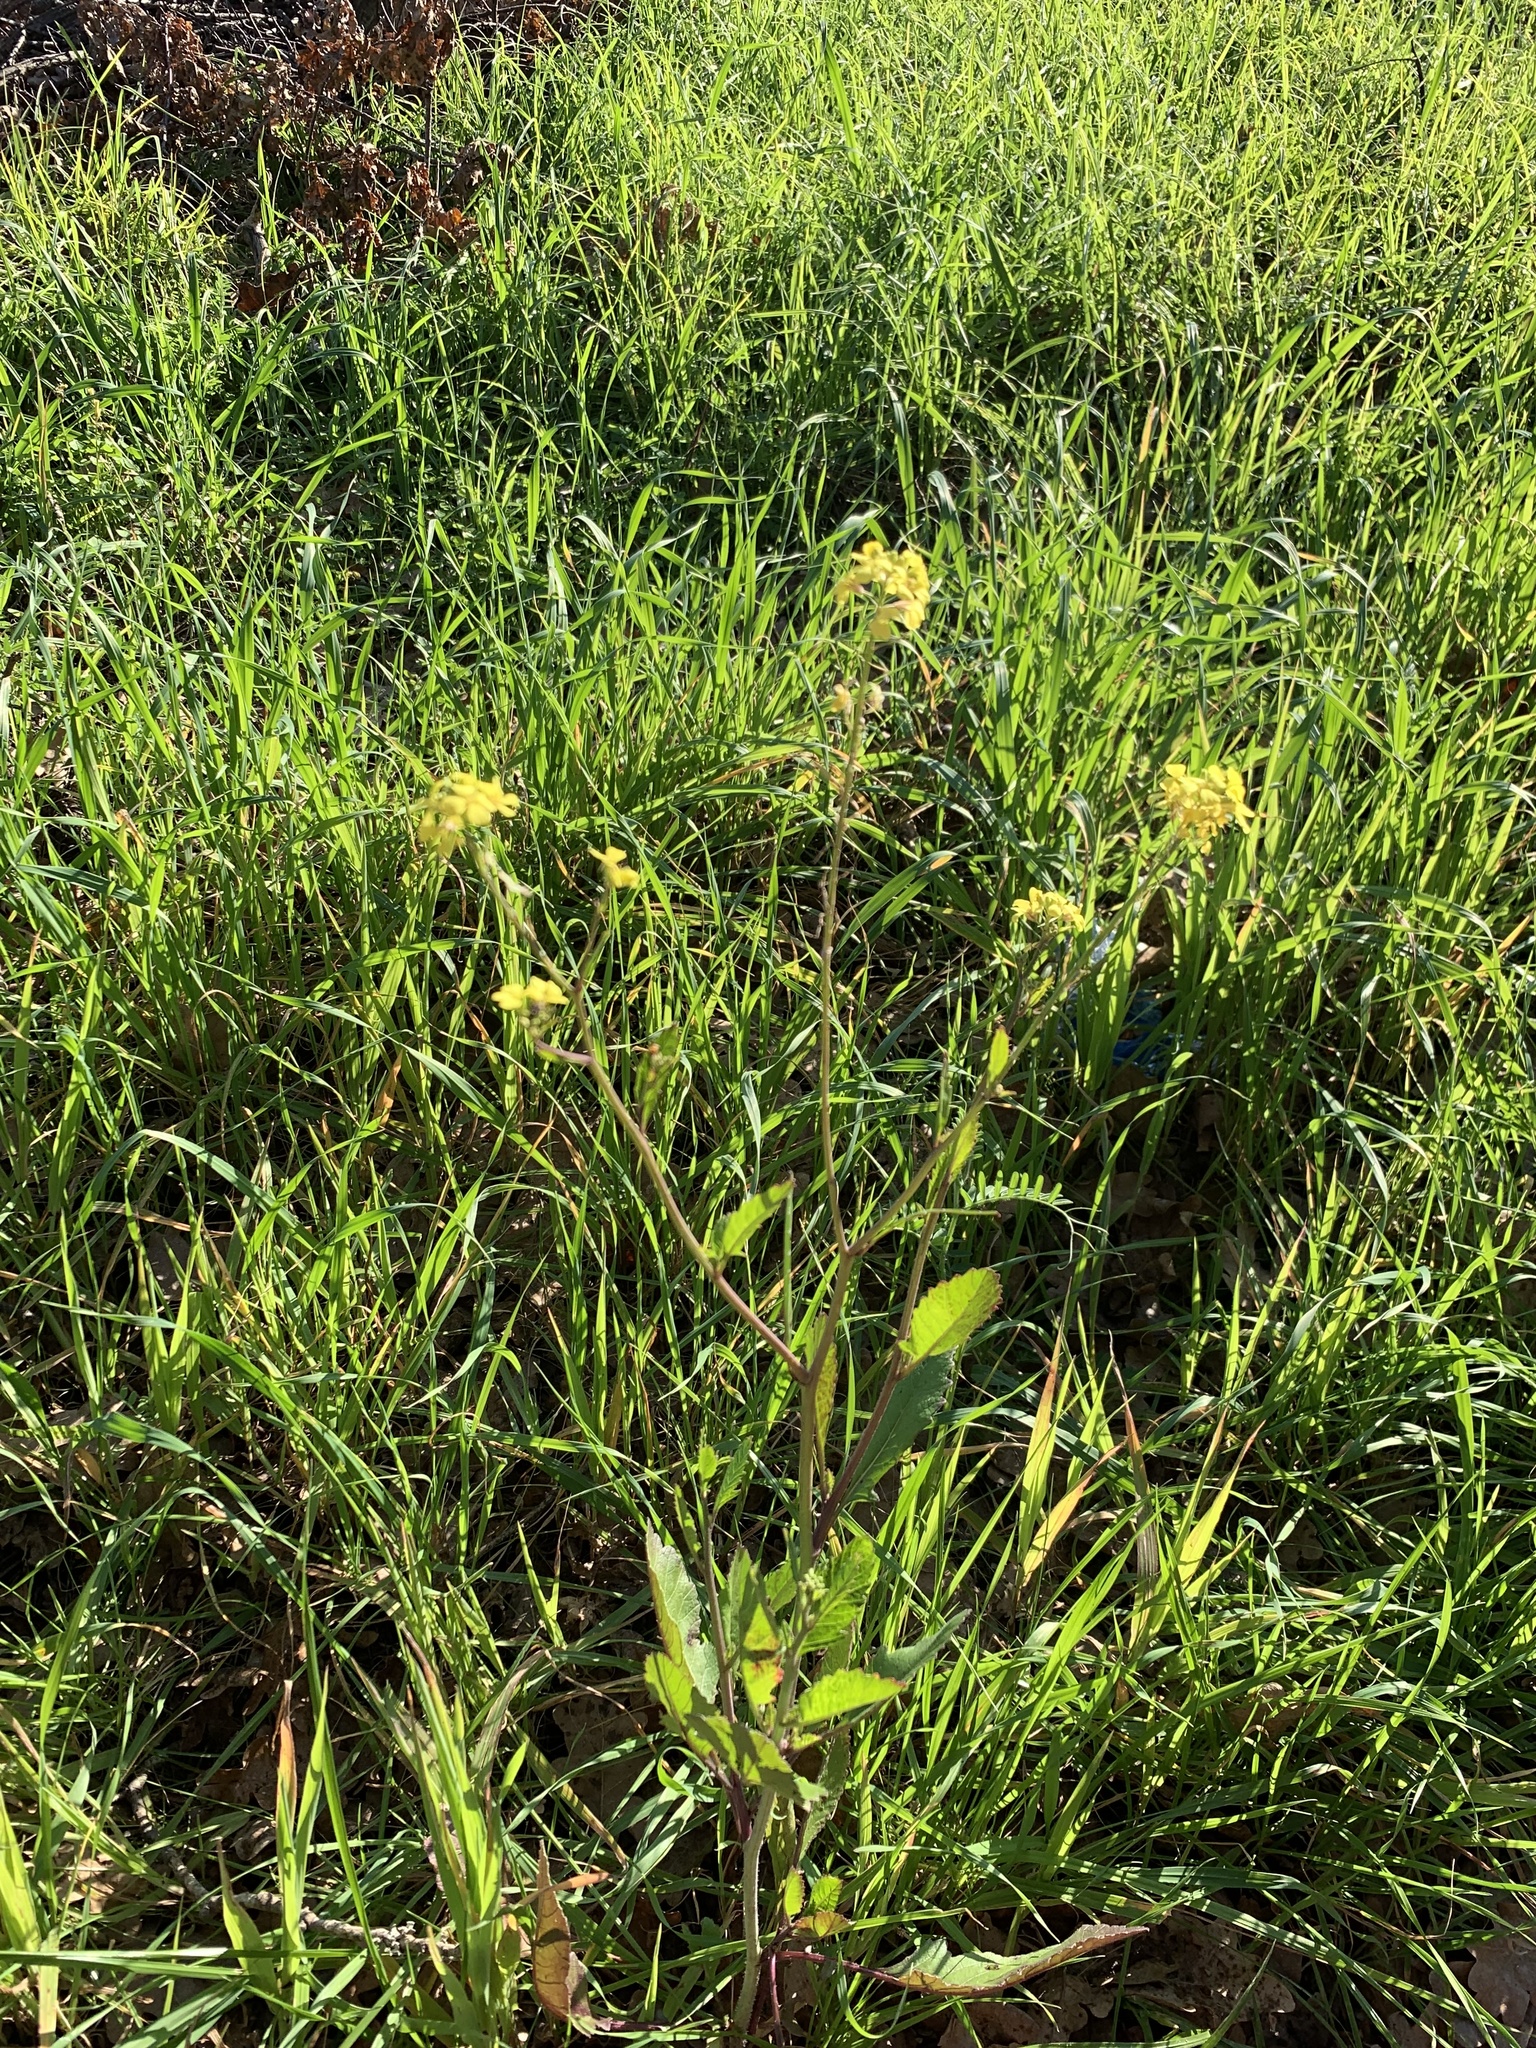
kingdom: Plantae
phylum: Tracheophyta
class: Magnoliopsida
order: Brassicales
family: Brassicaceae
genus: Rapistrum
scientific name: Rapistrum rugosum
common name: Annual bastardcabbage
